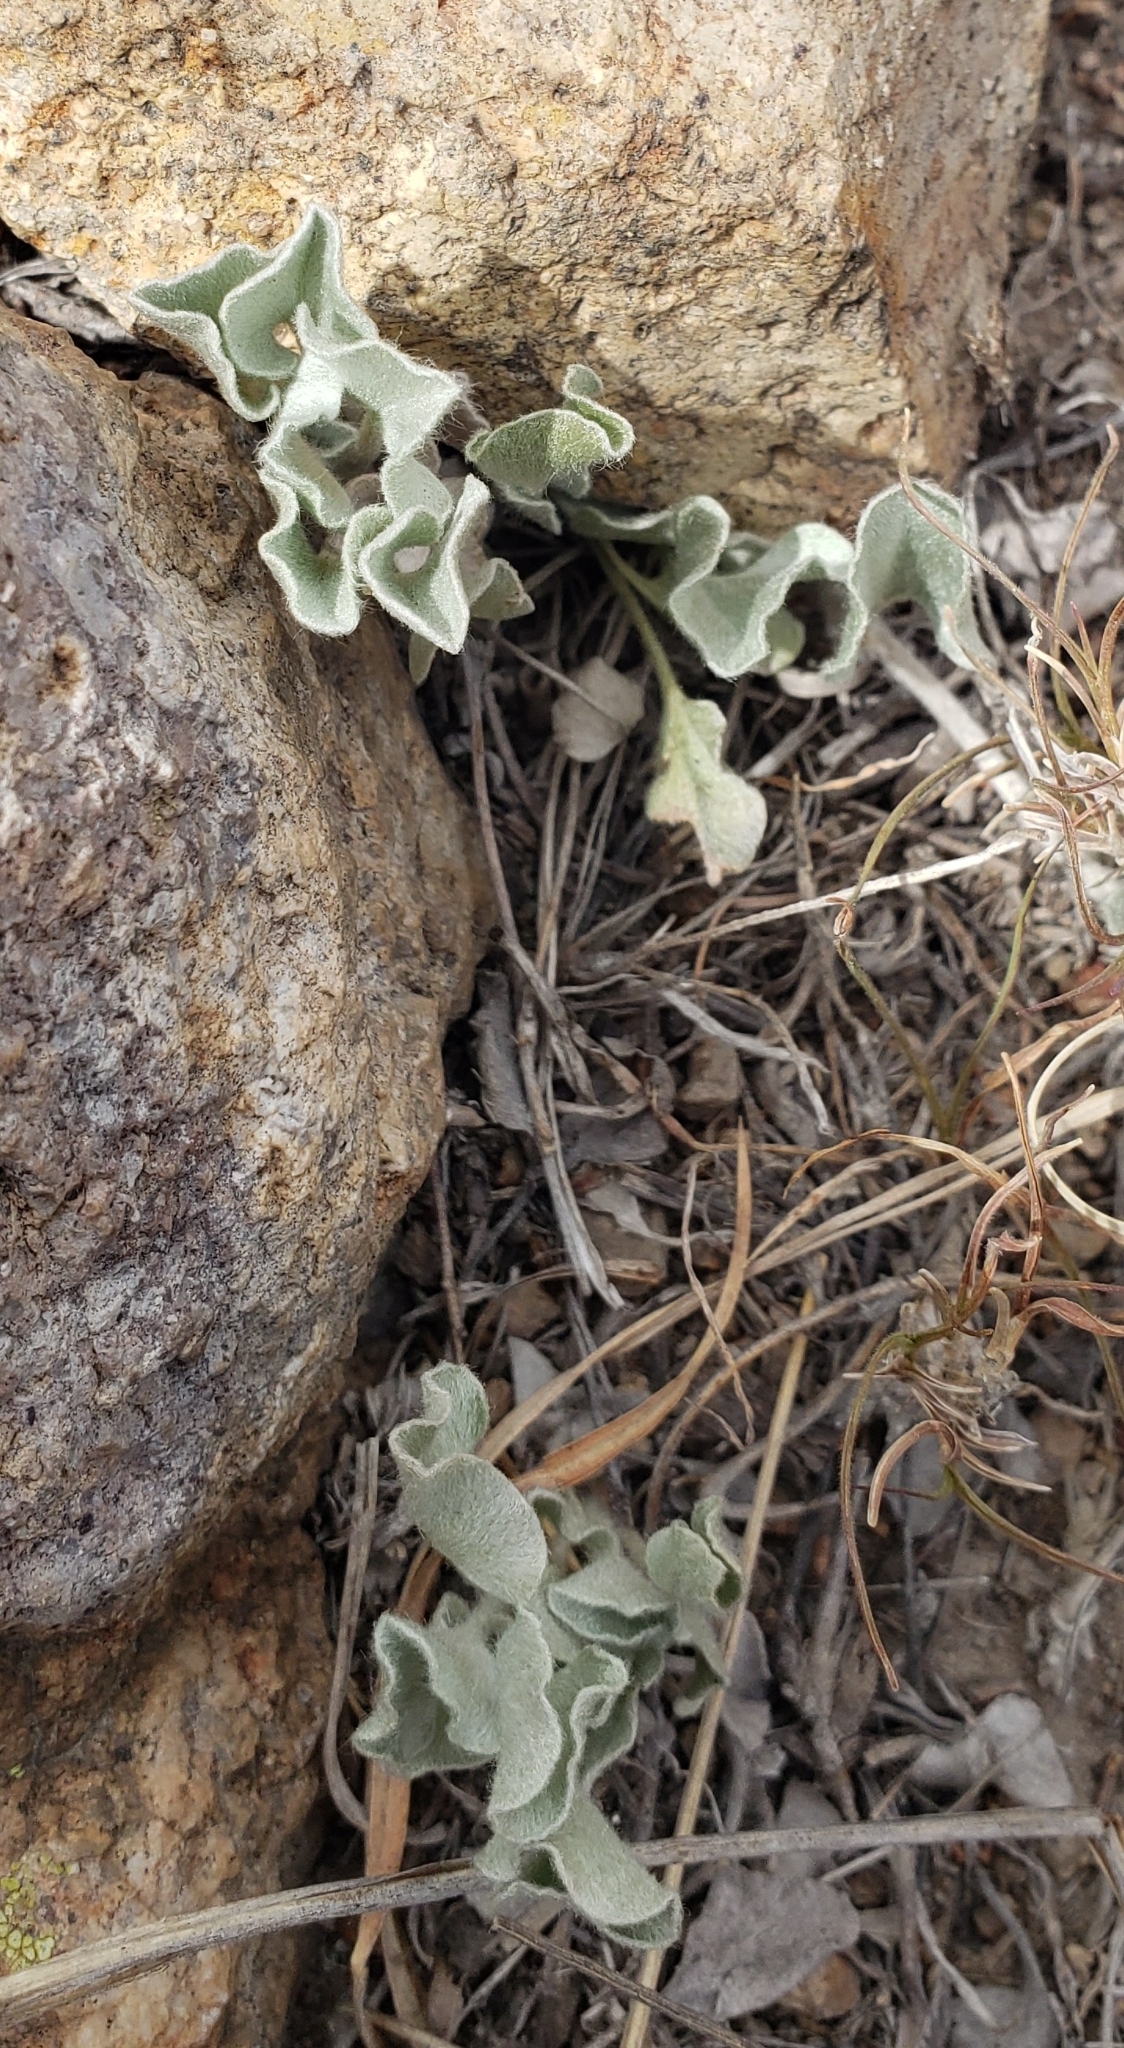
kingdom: Plantae
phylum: Tracheophyta
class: Magnoliopsida
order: Solanales
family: Convolvulaceae
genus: Dichondra
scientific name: Dichondra argentea
